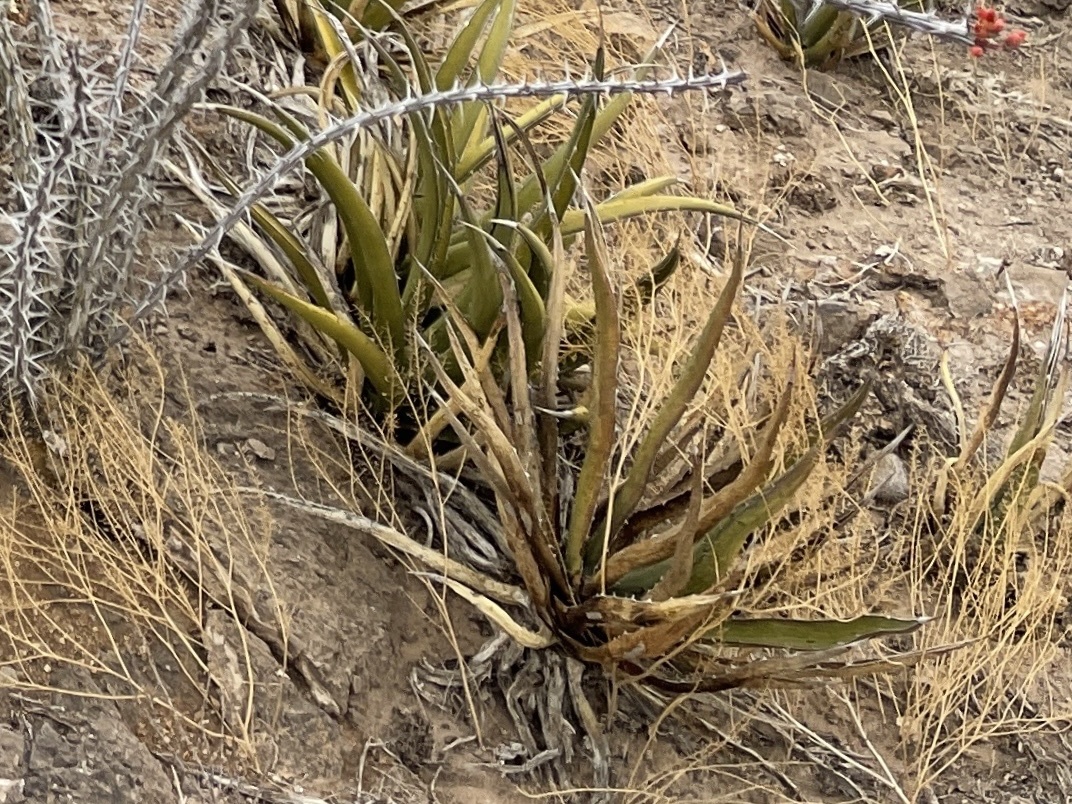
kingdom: Plantae
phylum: Tracheophyta
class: Liliopsida
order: Asparagales
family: Asparagaceae
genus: Agave
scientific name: Agave lechuguilla
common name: Lecheguilla agave
